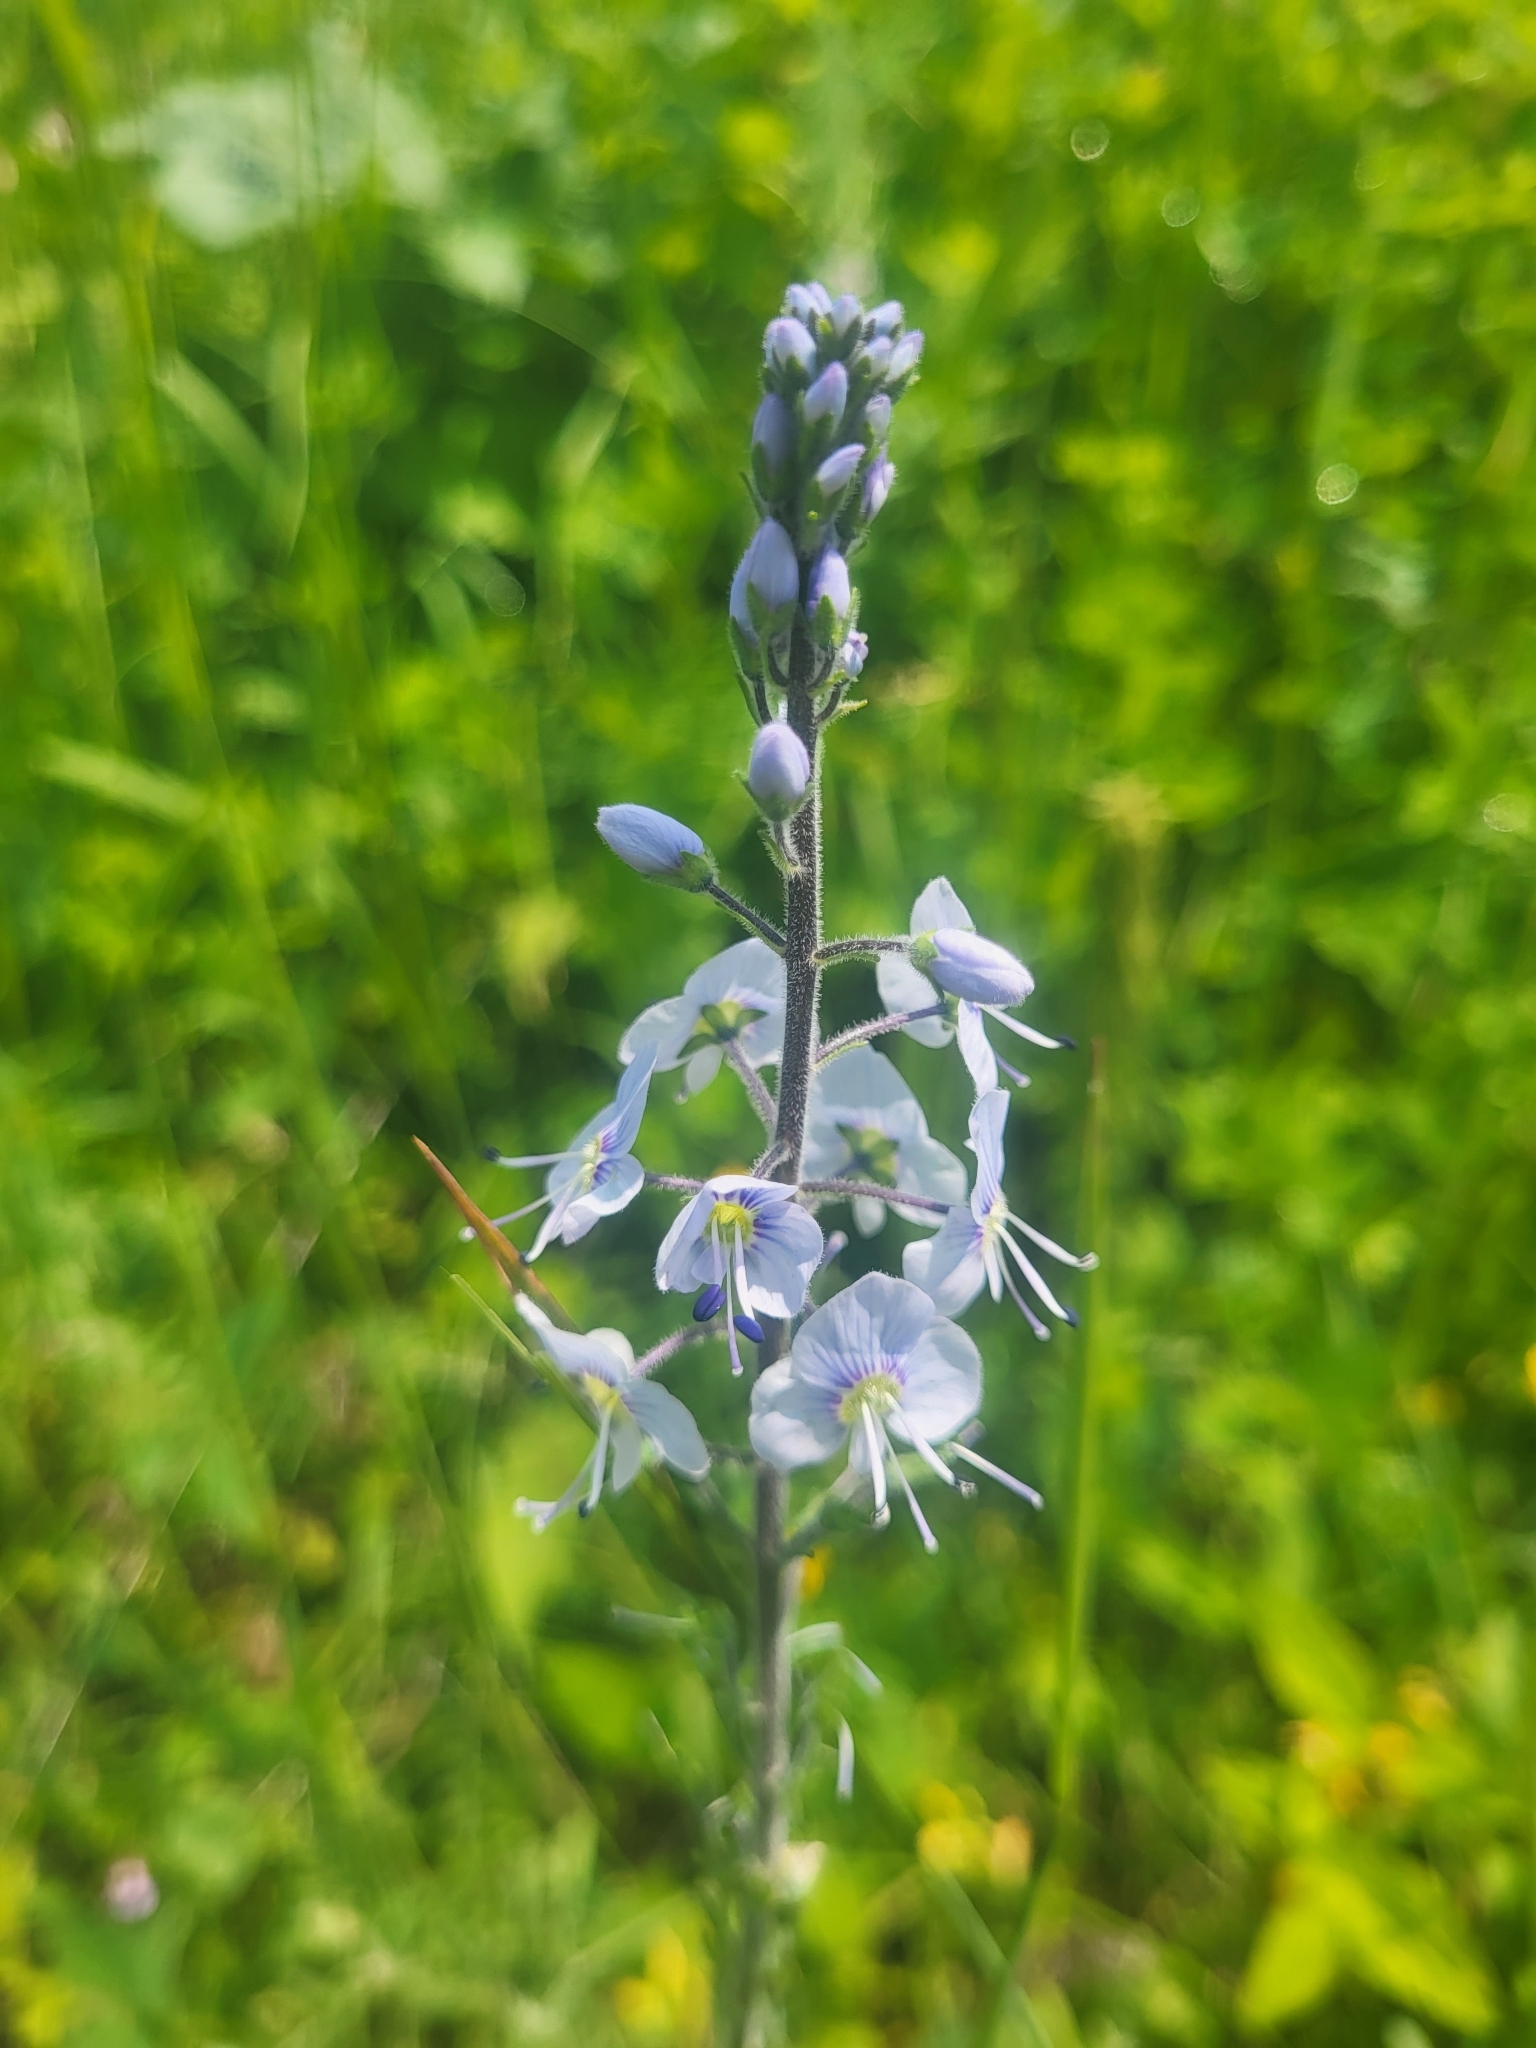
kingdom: Plantae
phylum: Tracheophyta
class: Magnoliopsida
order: Lamiales
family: Plantaginaceae
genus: Veronica
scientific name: Veronica gentianoides
